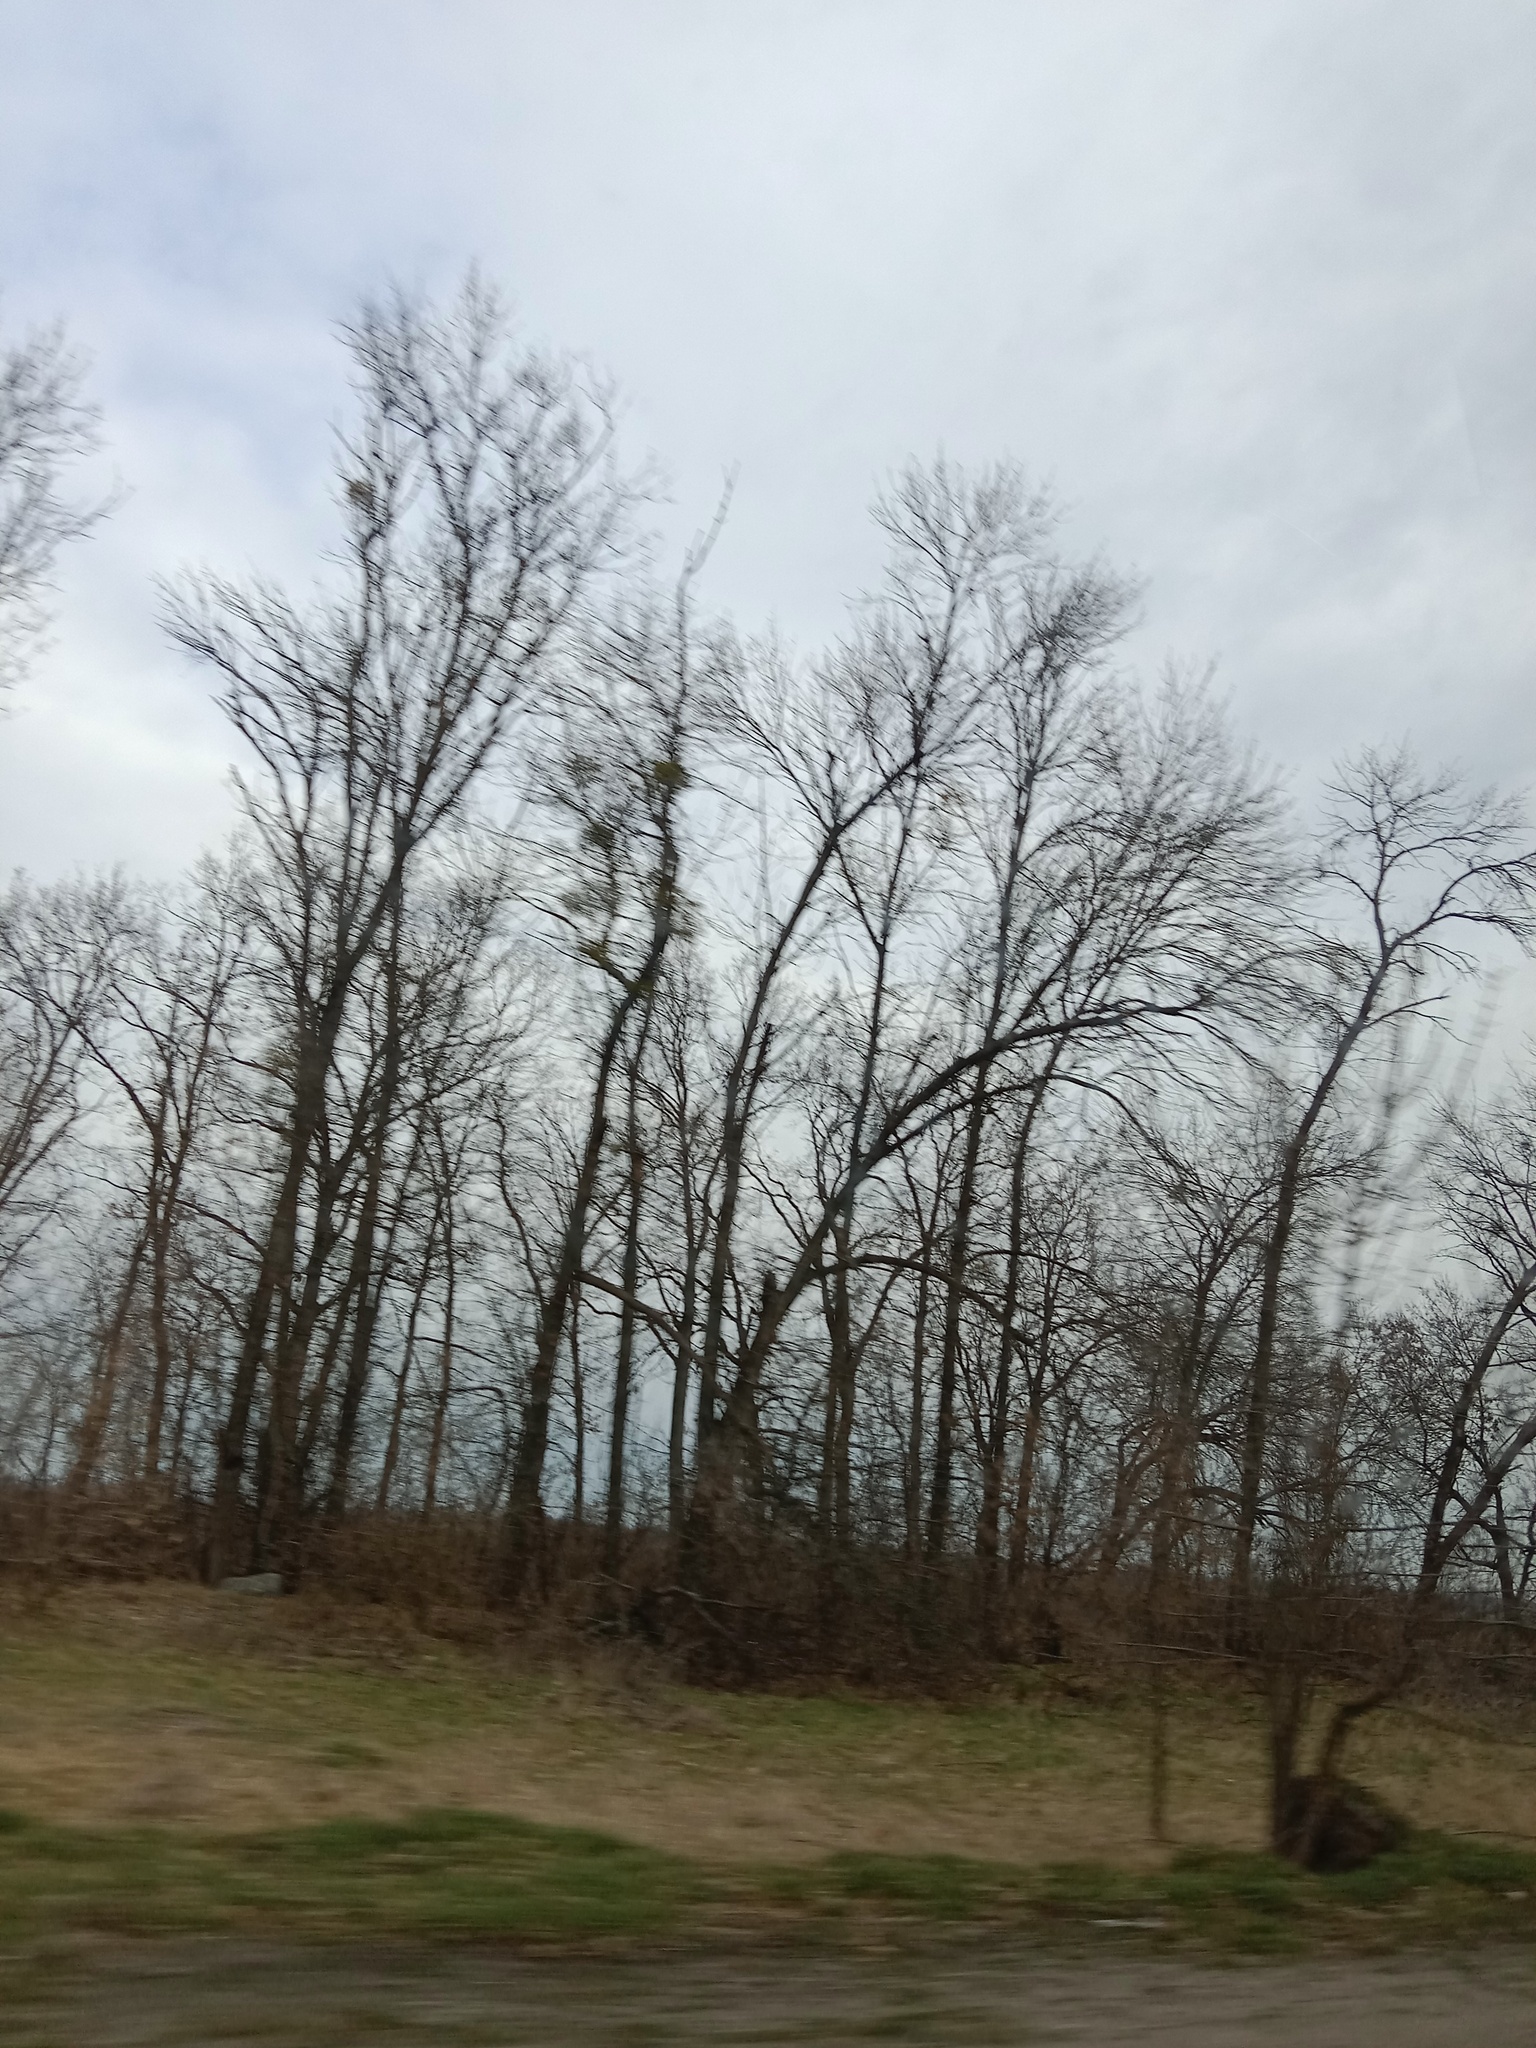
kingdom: Plantae
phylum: Tracheophyta
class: Magnoliopsida
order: Santalales
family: Viscaceae
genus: Viscum
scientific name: Viscum album
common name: Mistletoe
